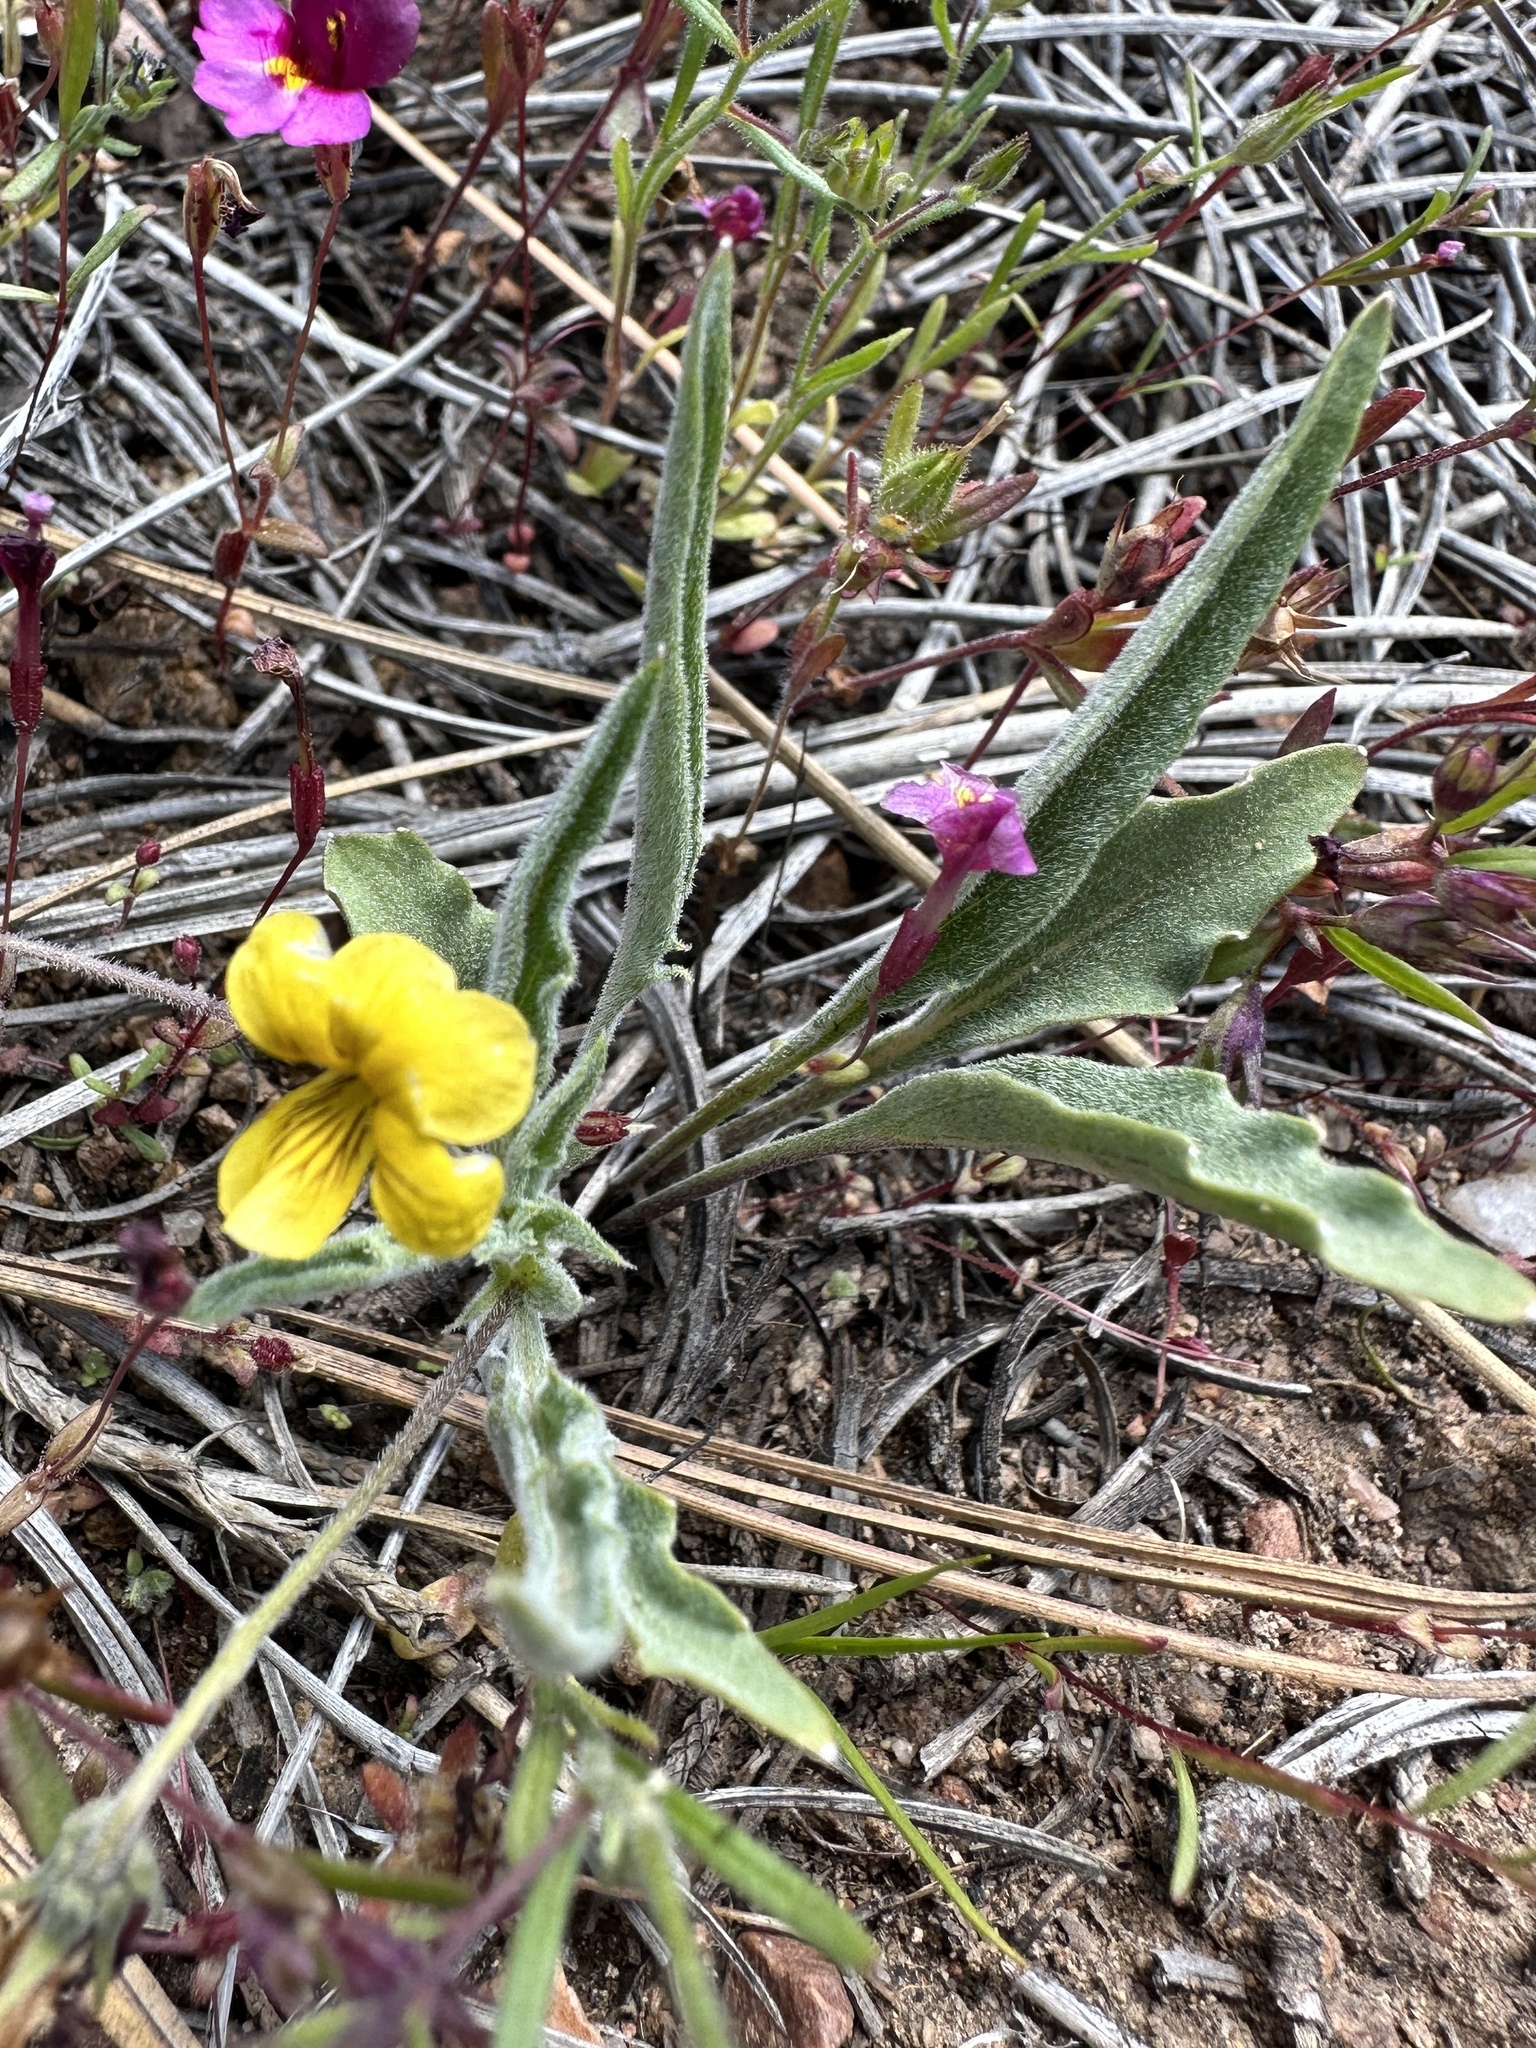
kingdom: Plantae
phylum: Tracheophyta
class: Magnoliopsida
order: Malpighiales
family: Violaceae
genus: Viola
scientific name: Viola pinetorum
